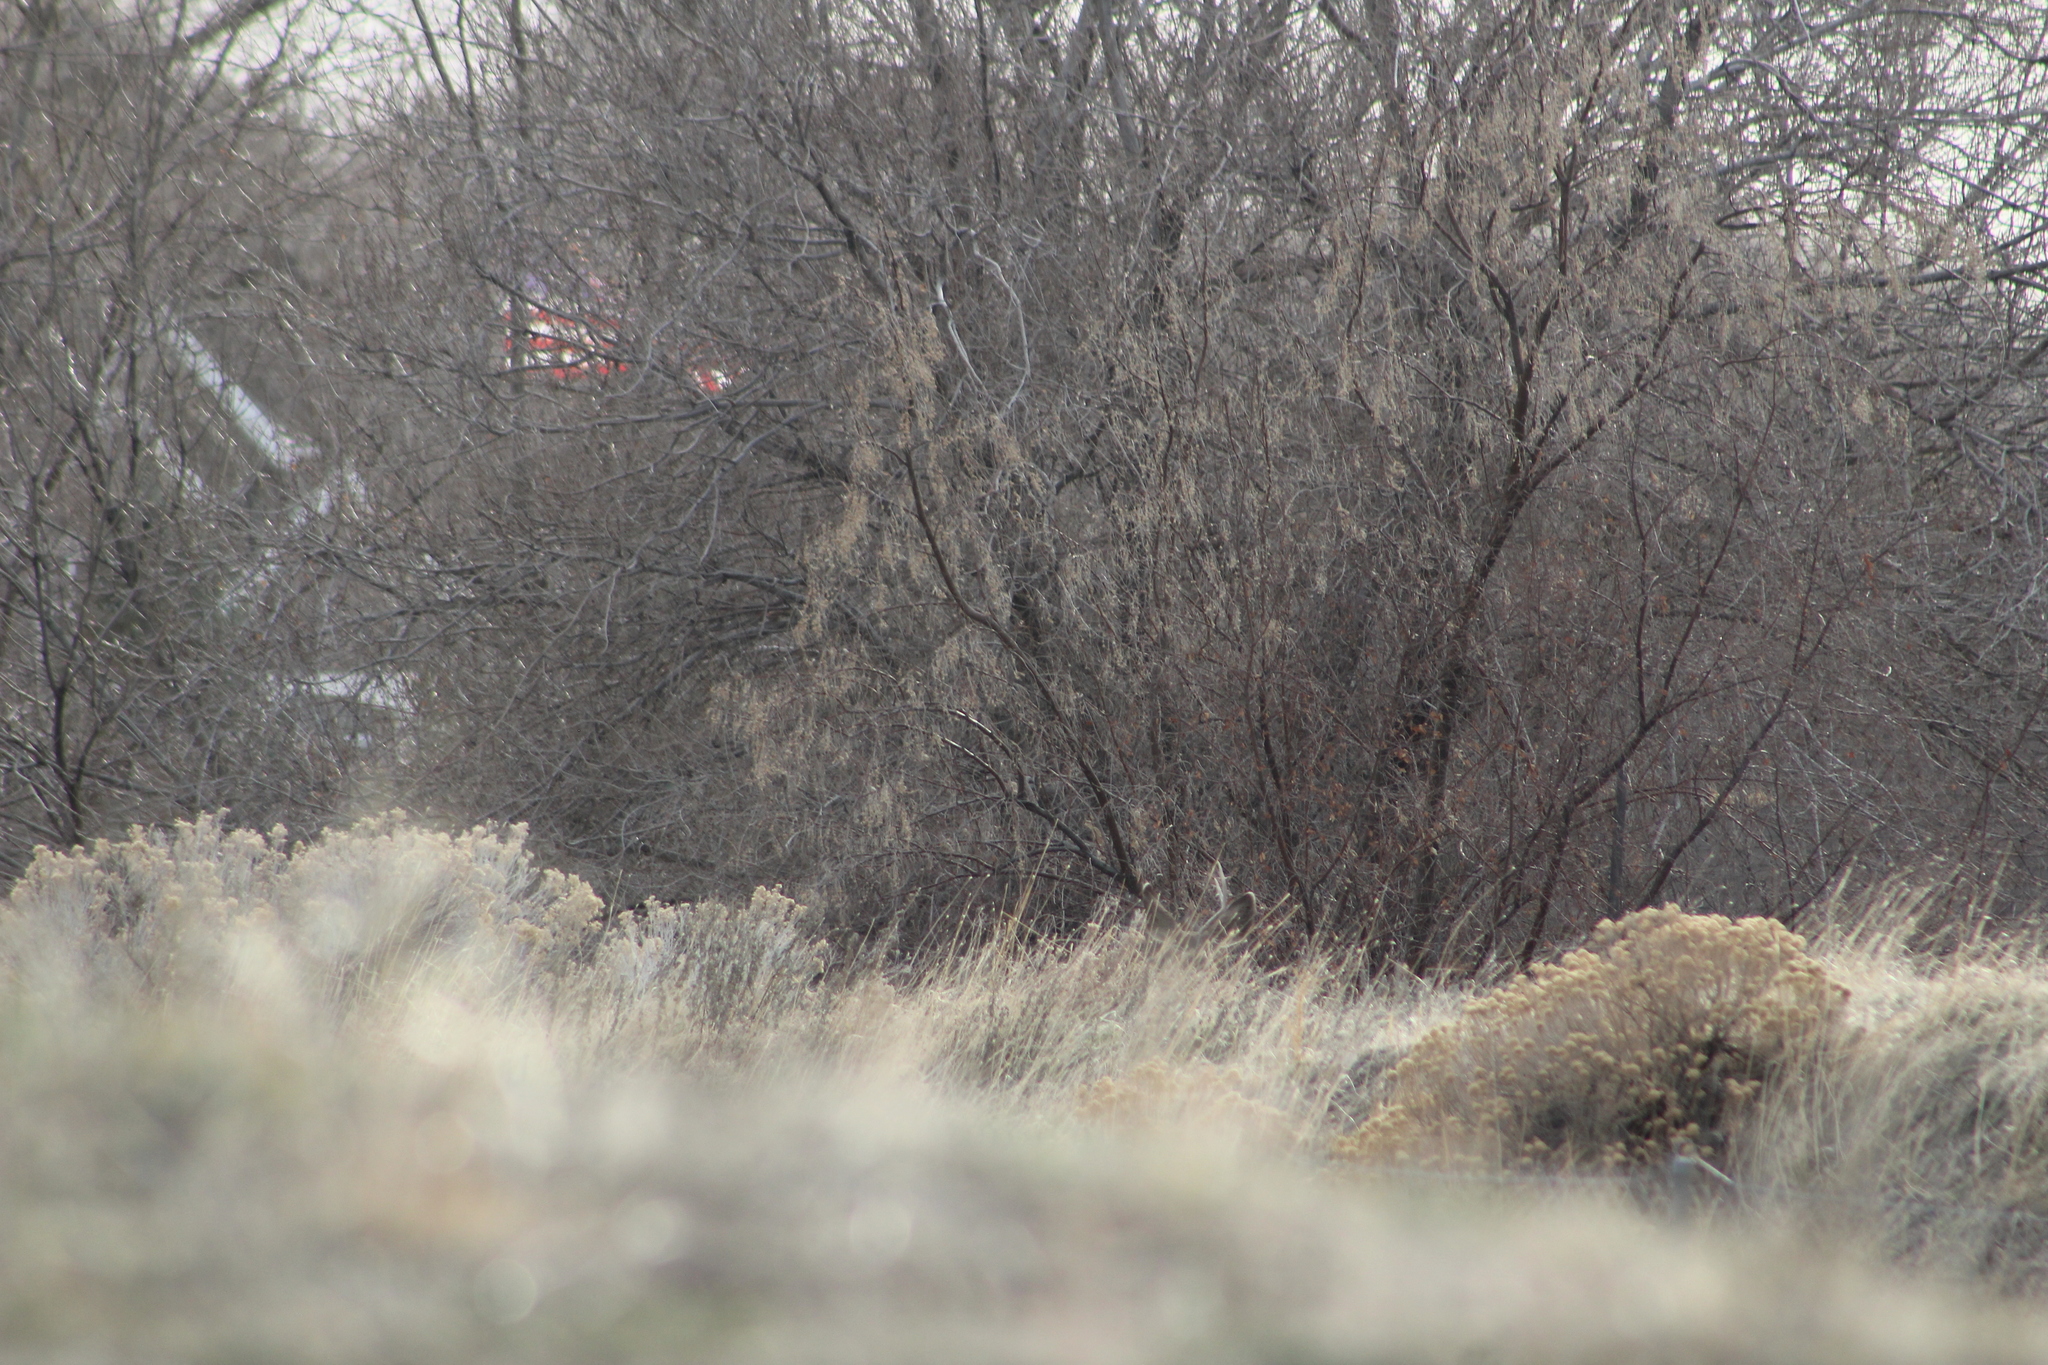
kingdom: Animalia
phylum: Chordata
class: Mammalia
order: Artiodactyla
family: Cervidae
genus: Odocoileus
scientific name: Odocoileus hemionus
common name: Mule deer
